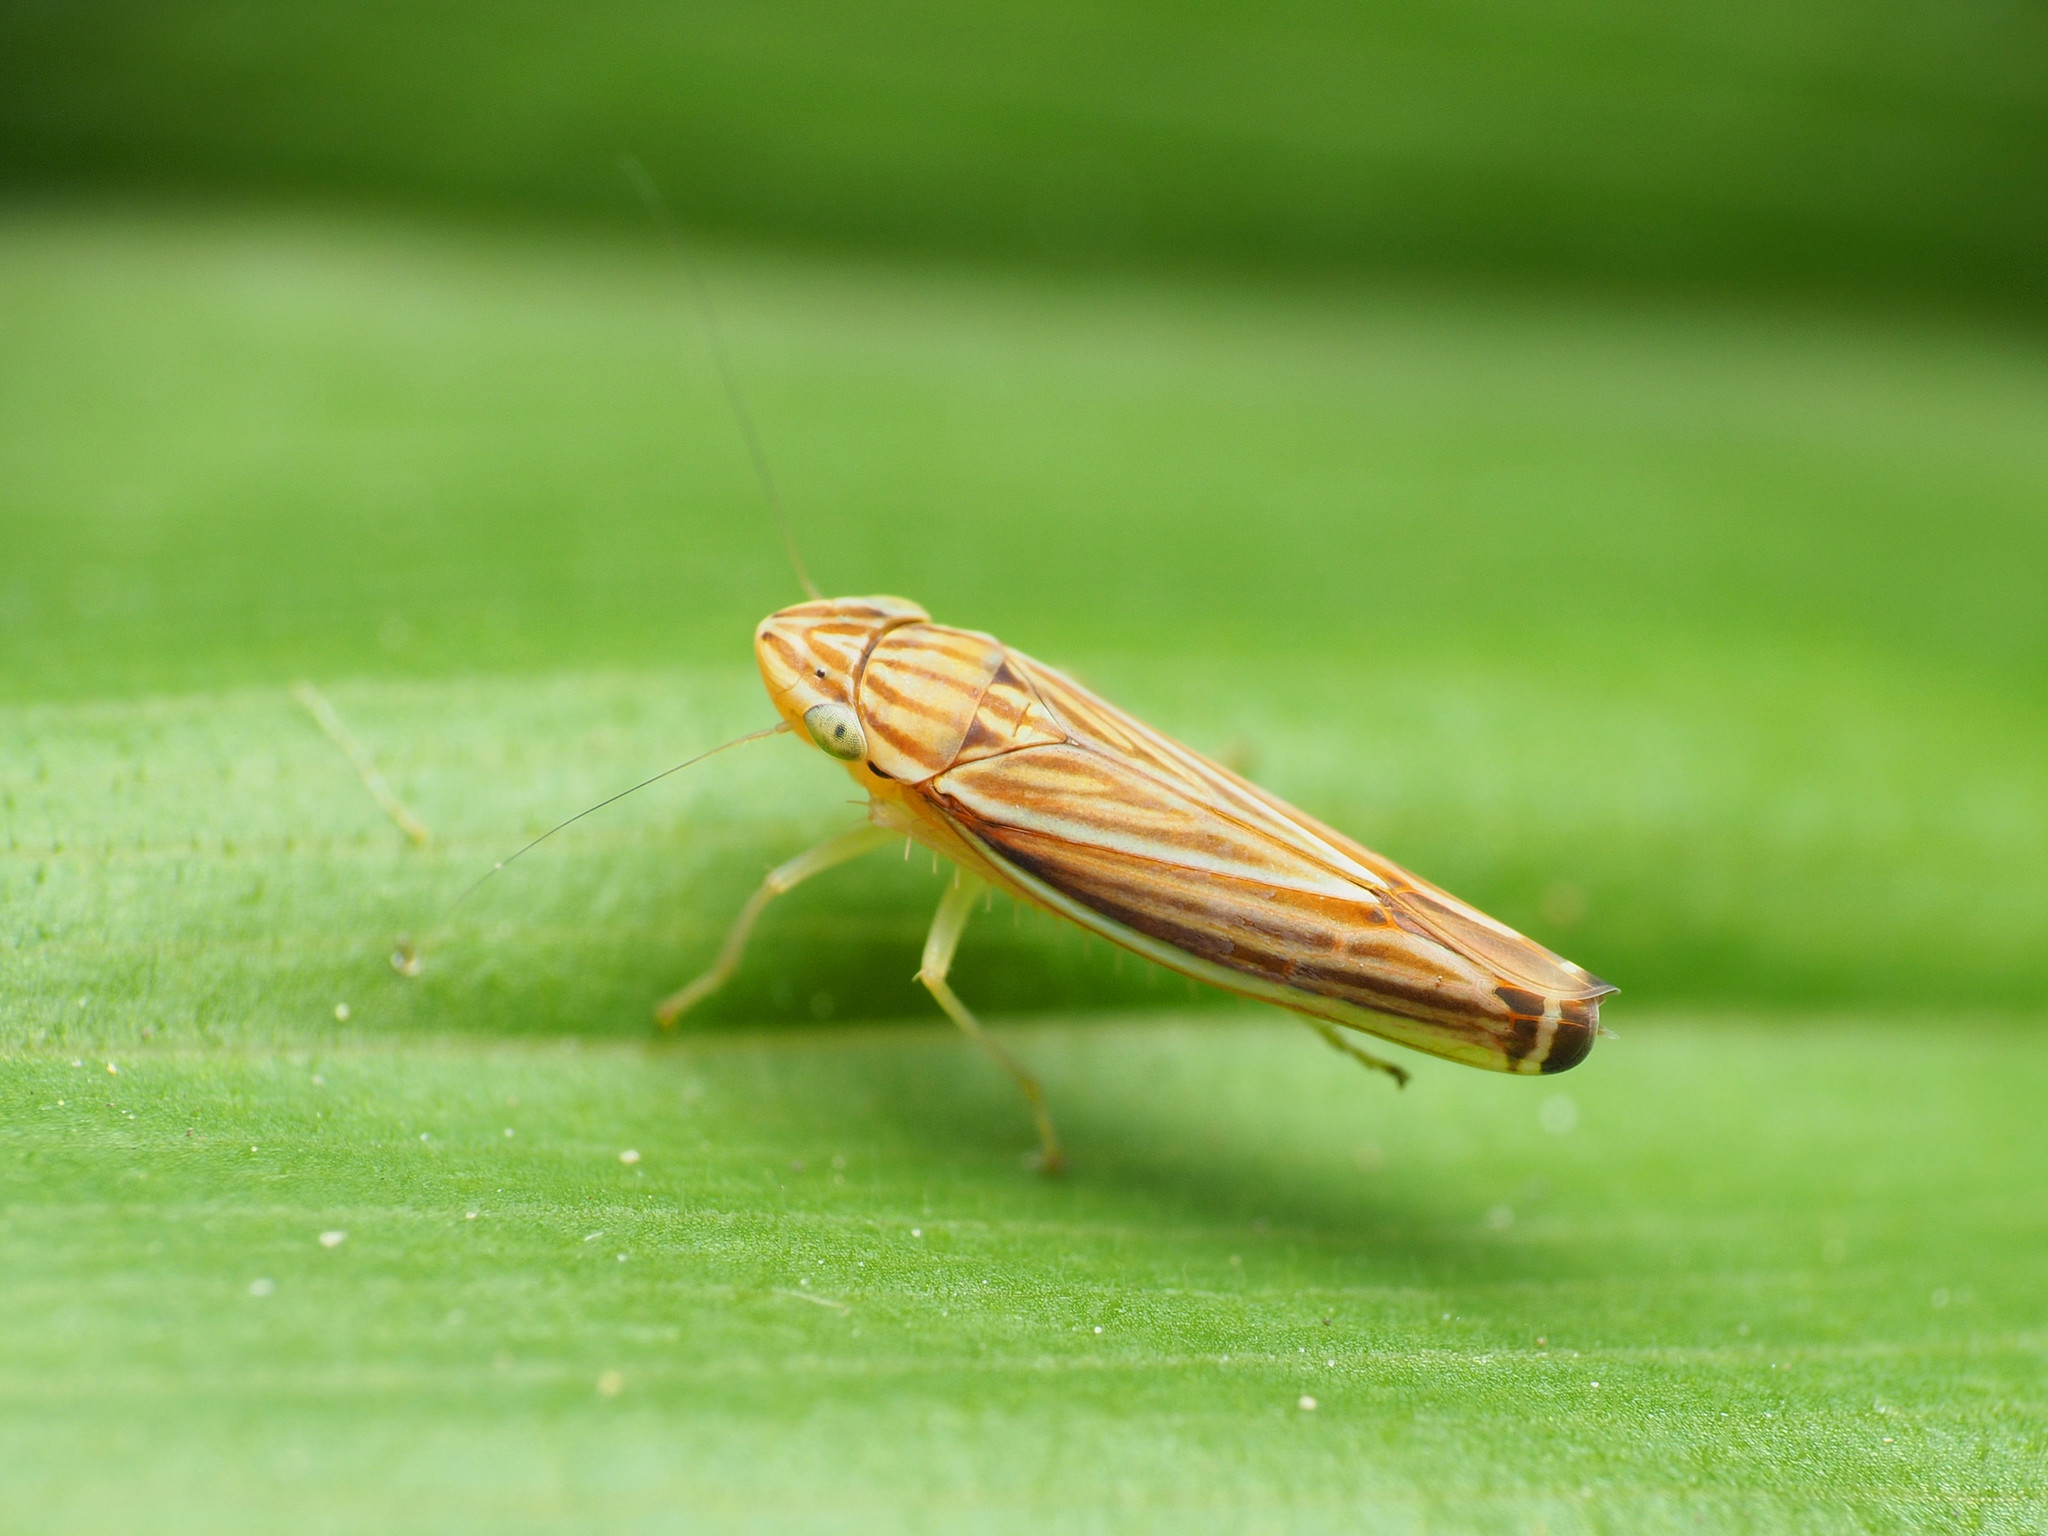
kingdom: Animalia
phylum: Arthropoda
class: Insecta
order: Hemiptera
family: Cicadellidae
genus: Sibovia
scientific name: Sibovia occatoria
